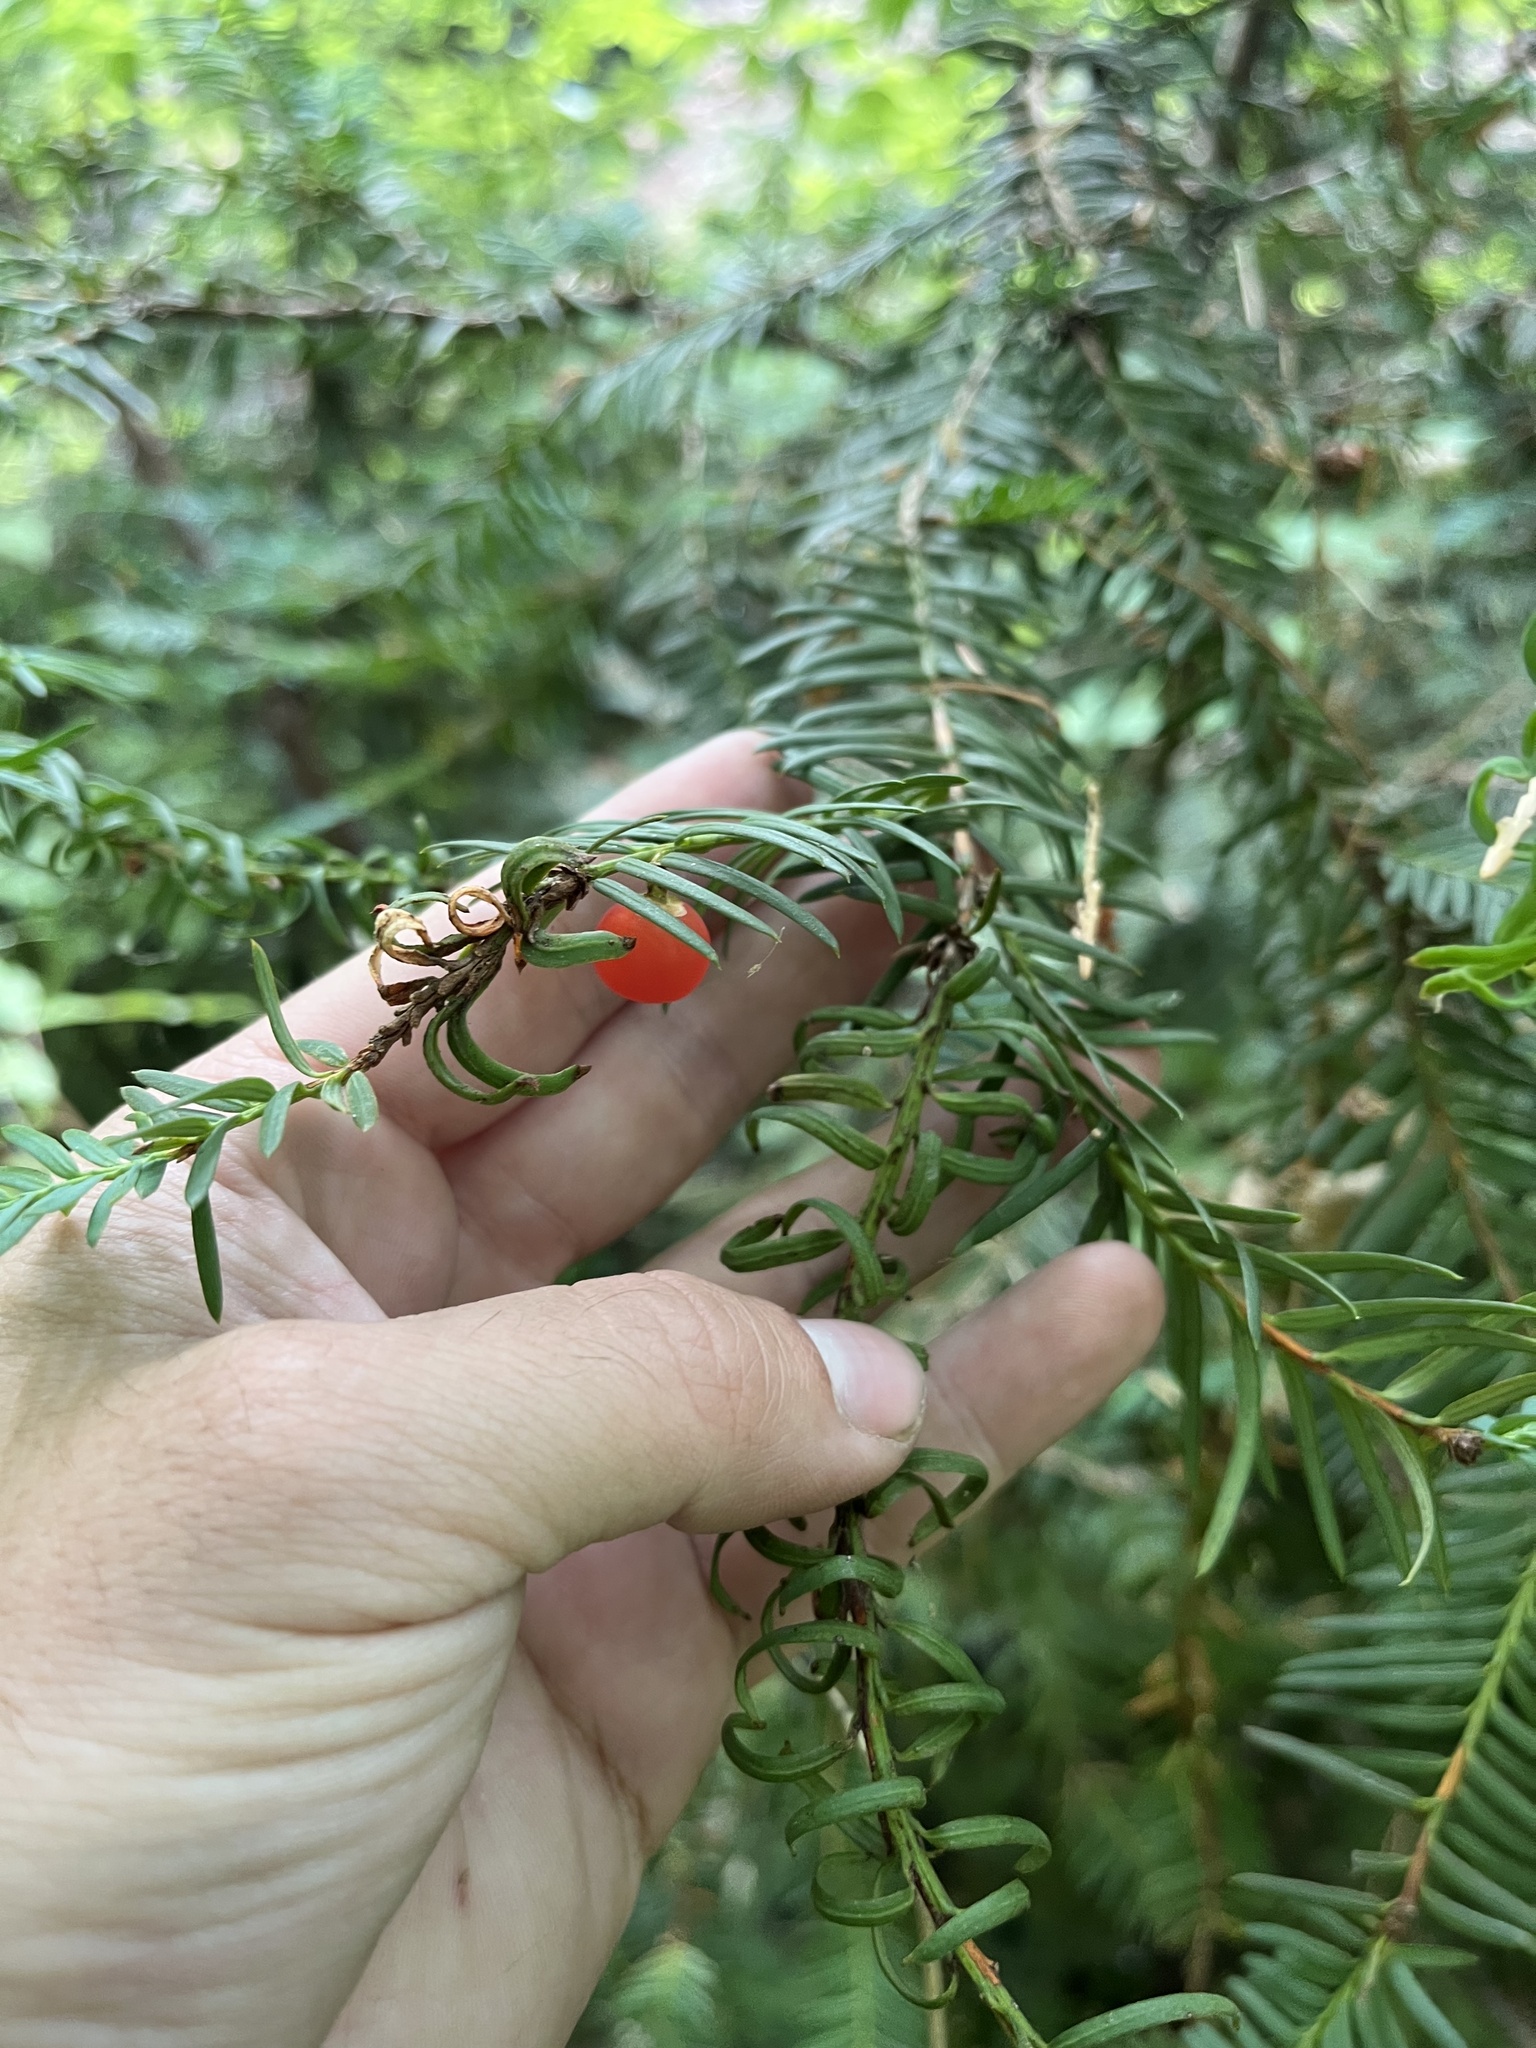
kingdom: Plantae
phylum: Tracheophyta
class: Pinopsida
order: Pinales
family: Taxaceae
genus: Taxus
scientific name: Taxus brevifolia
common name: Pacific yew
